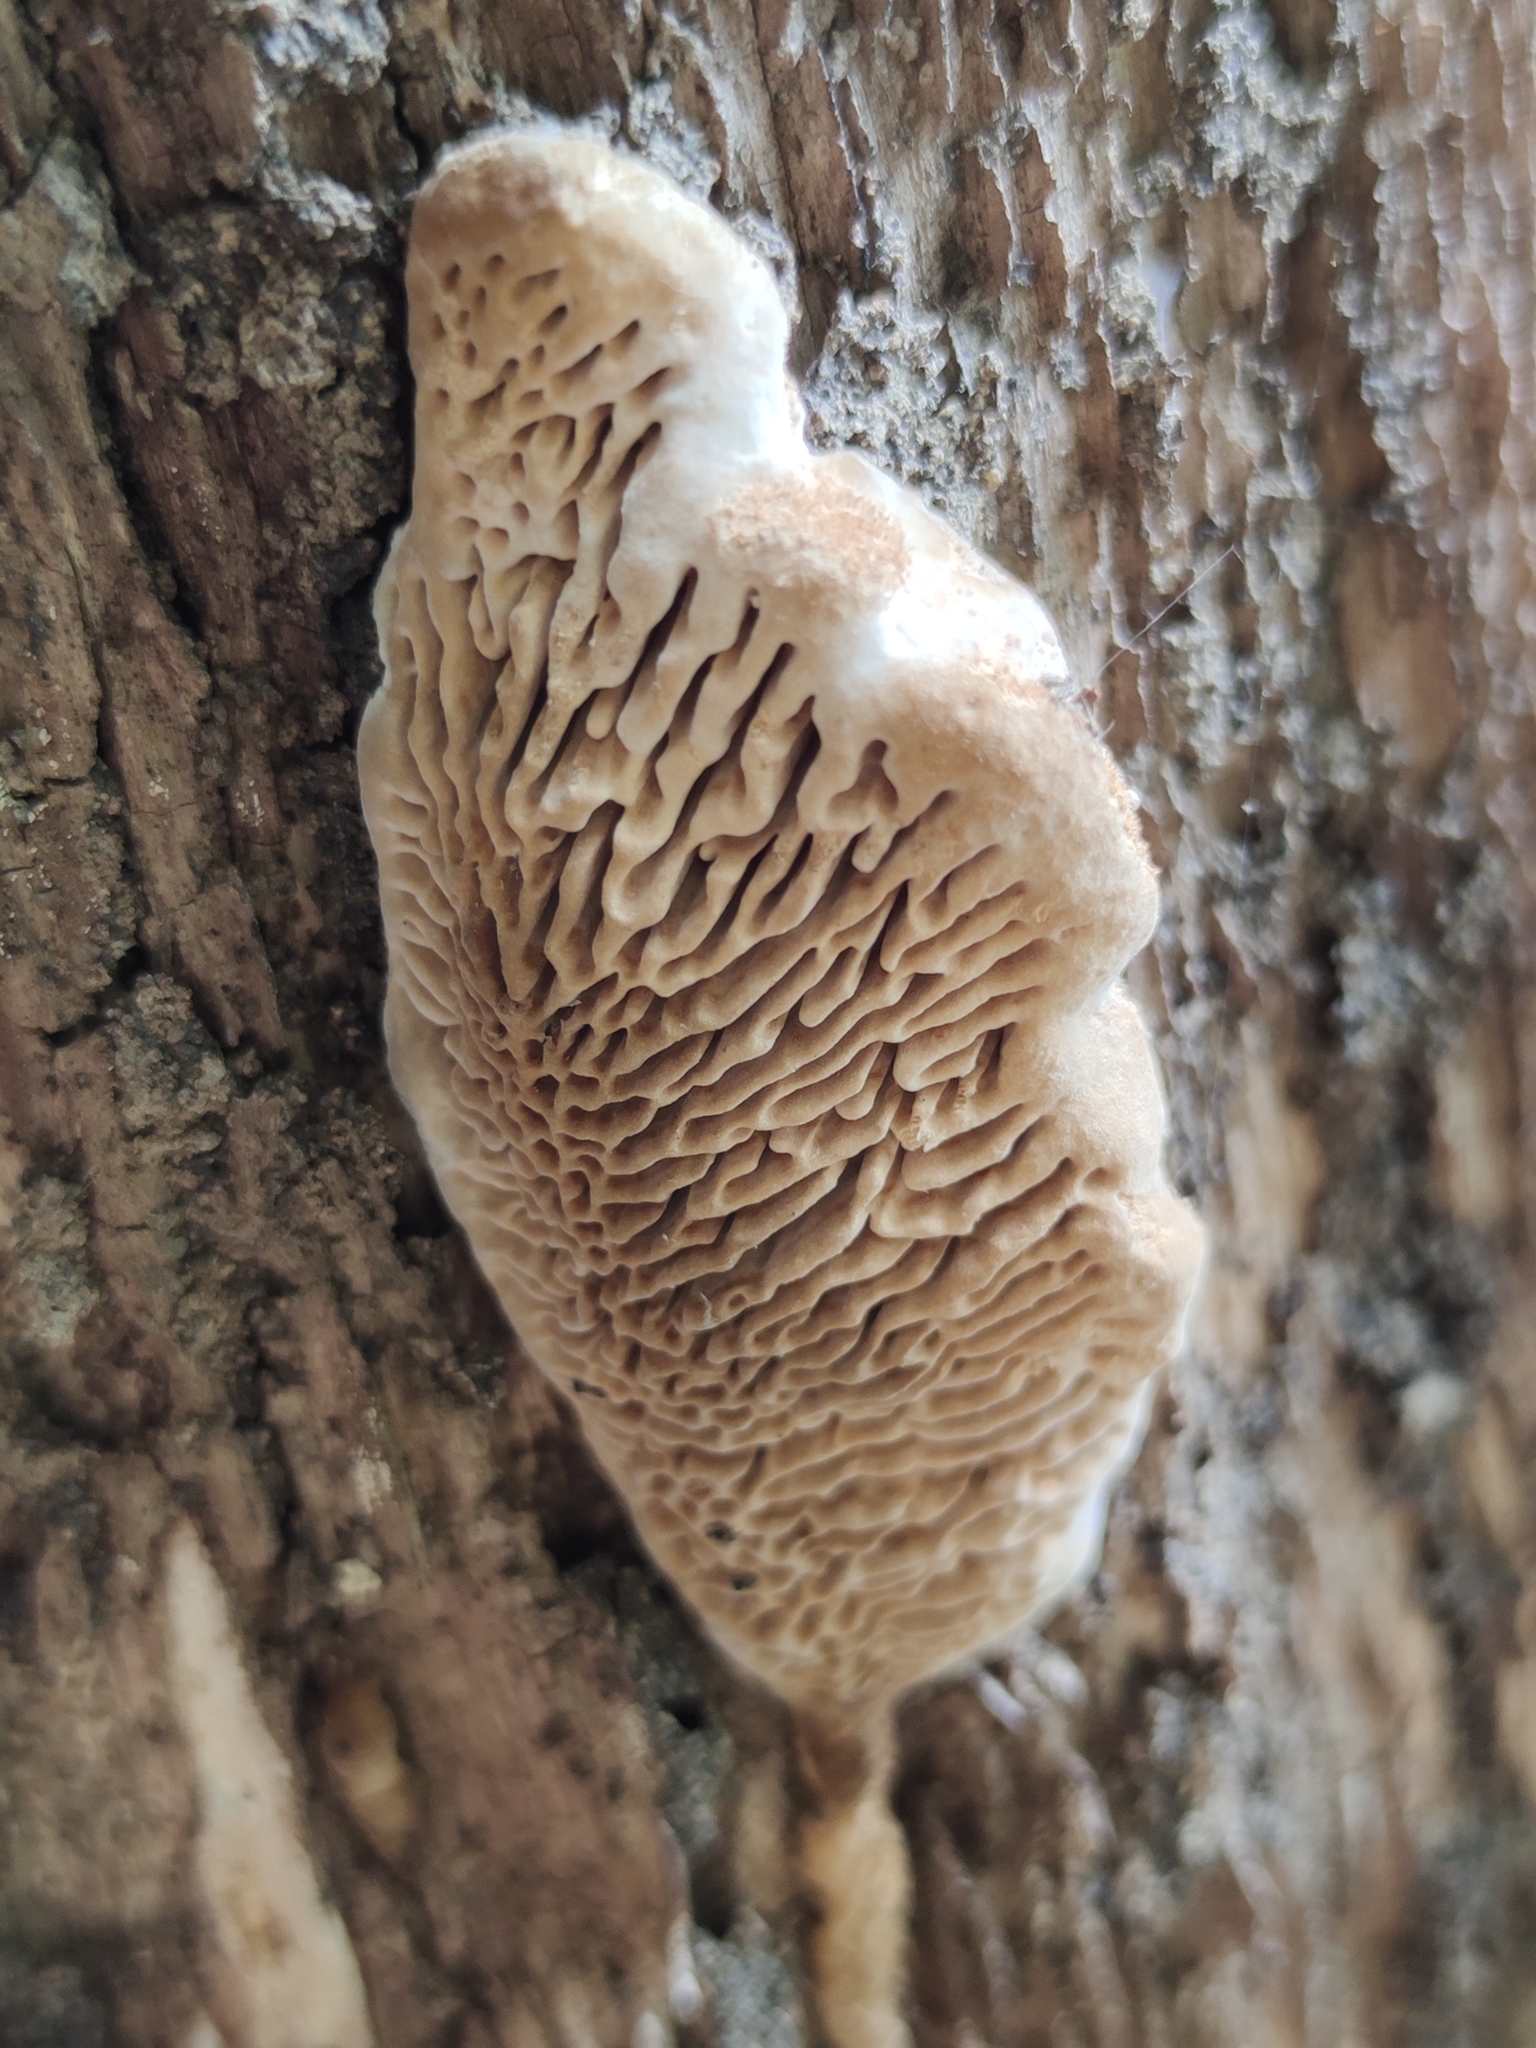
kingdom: Fungi
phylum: Basidiomycota
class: Agaricomycetes
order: Polyporales
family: Fomitopsidaceae
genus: Fomitopsis
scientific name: Fomitopsis
